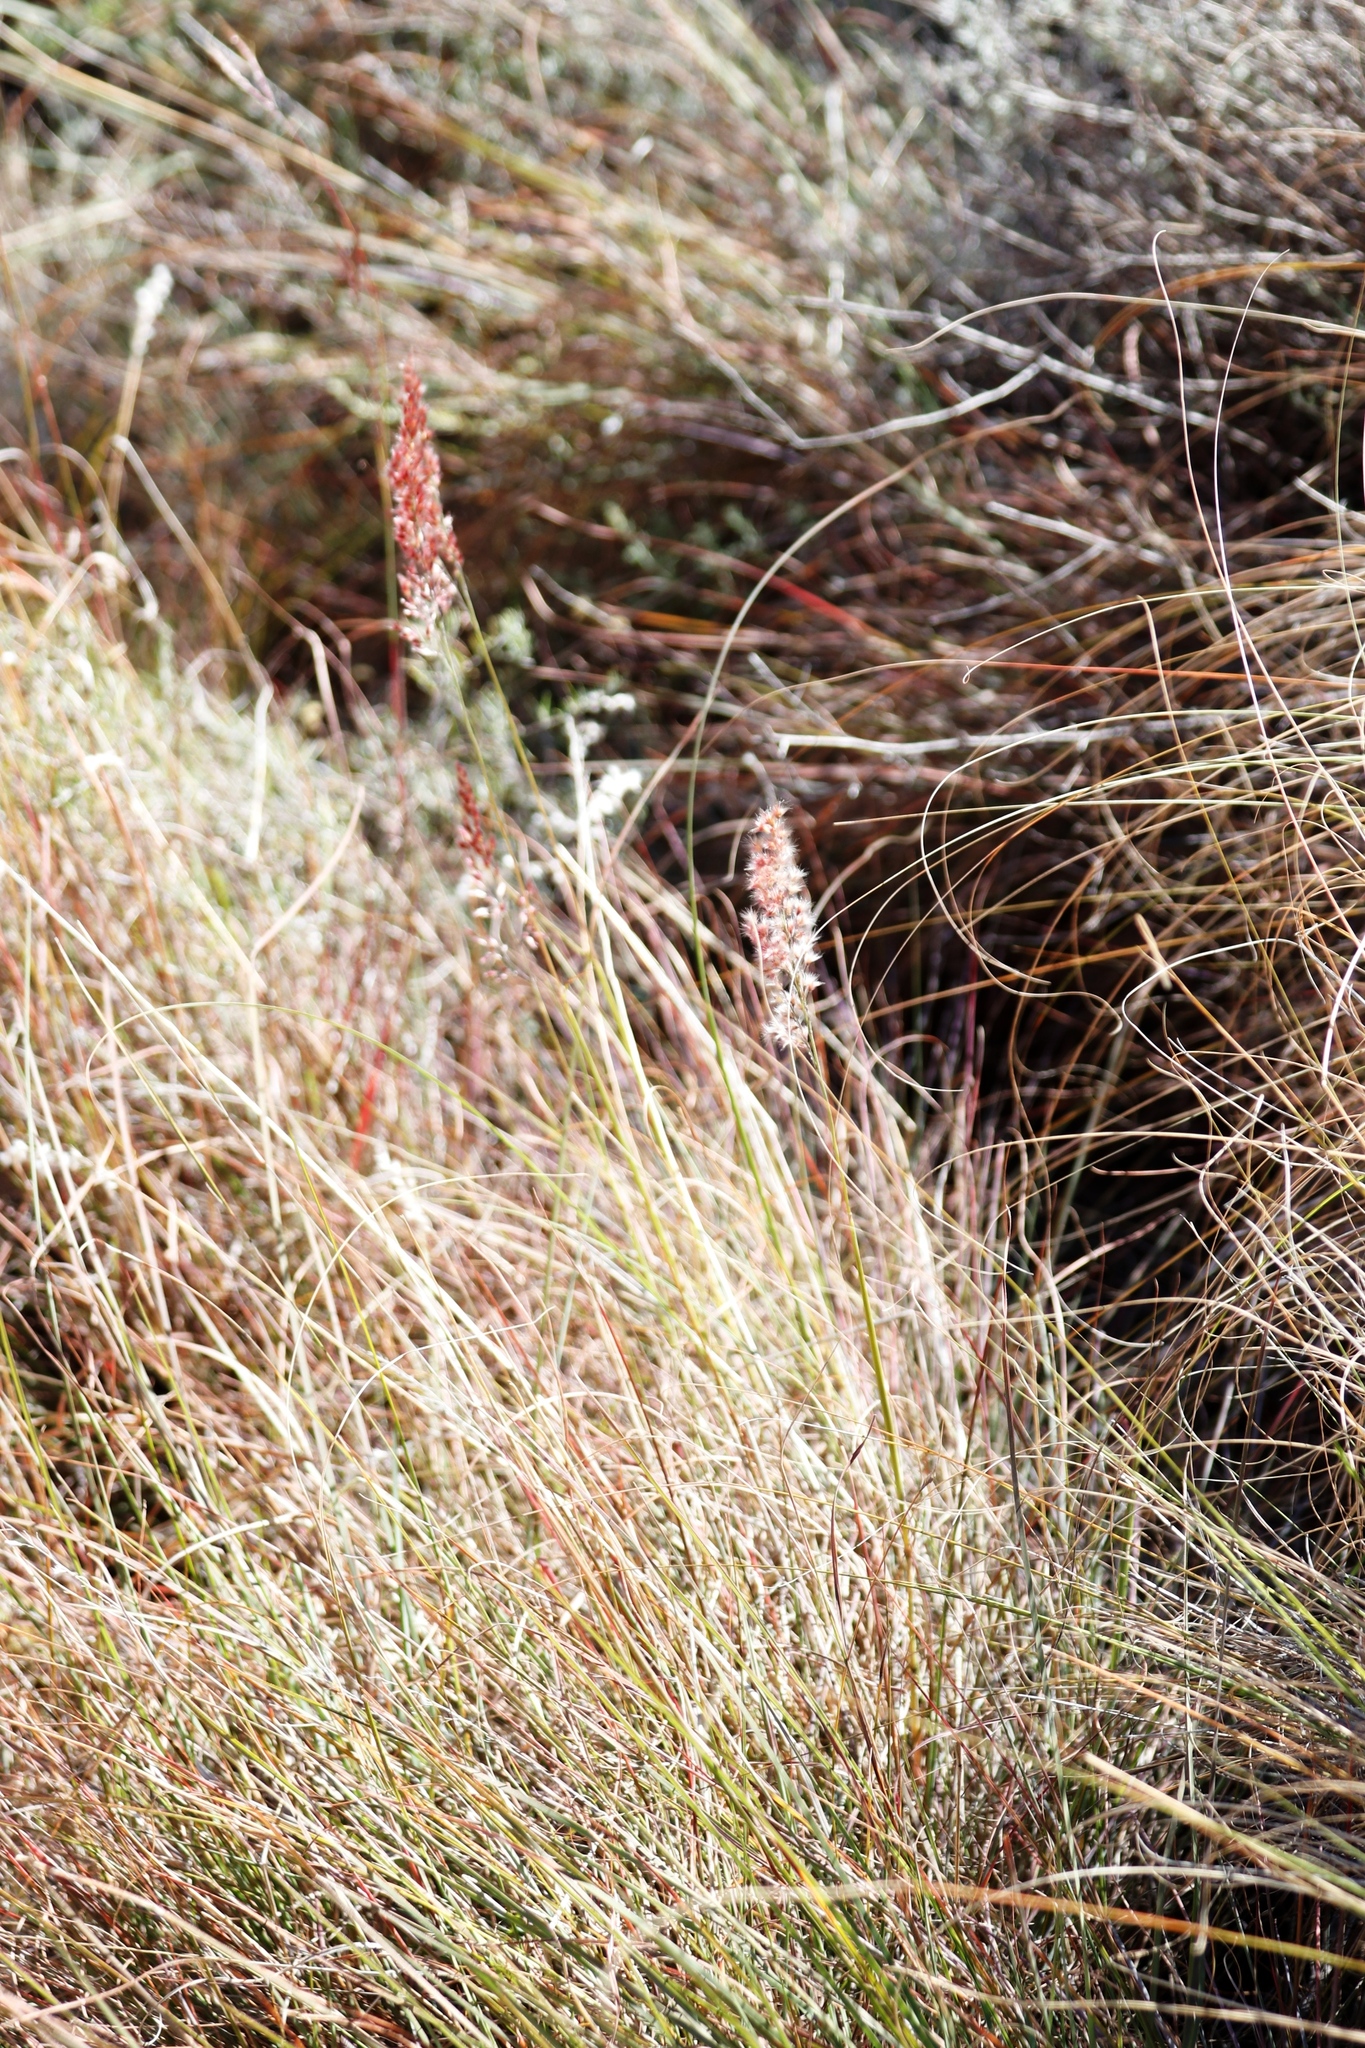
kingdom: Plantae
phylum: Tracheophyta
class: Liliopsida
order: Poales
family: Poaceae
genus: Melinis
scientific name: Melinis nerviglumis
